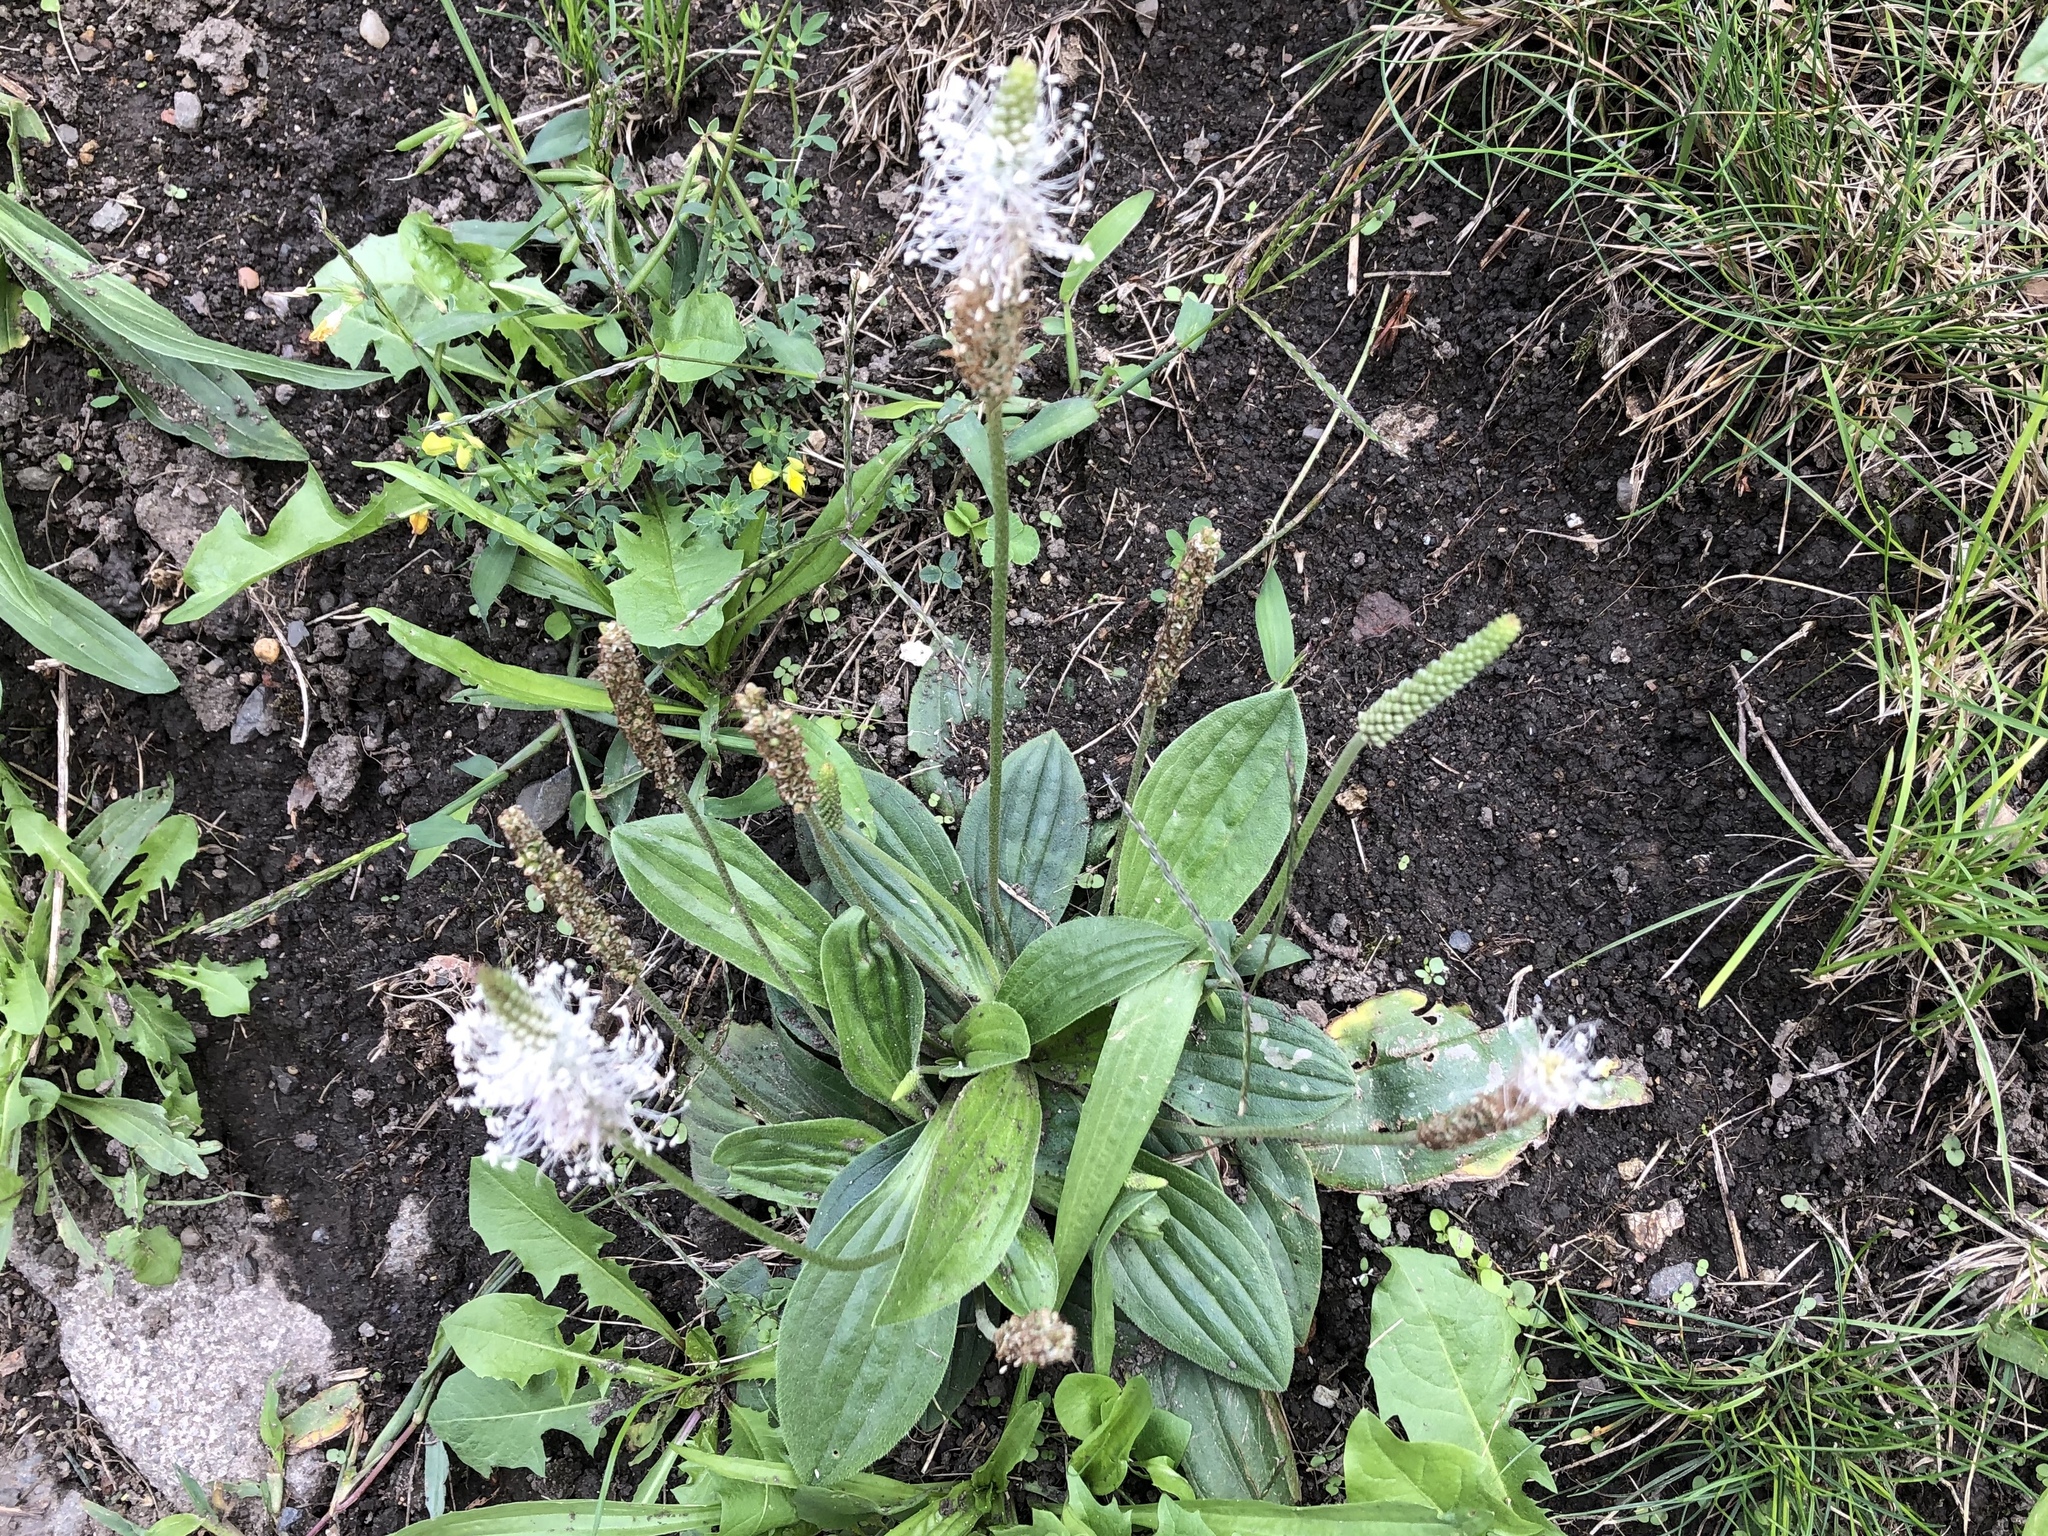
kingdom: Plantae
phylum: Tracheophyta
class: Magnoliopsida
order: Lamiales
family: Plantaginaceae
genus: Plantago
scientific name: Plantago media
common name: Hoary plantain
